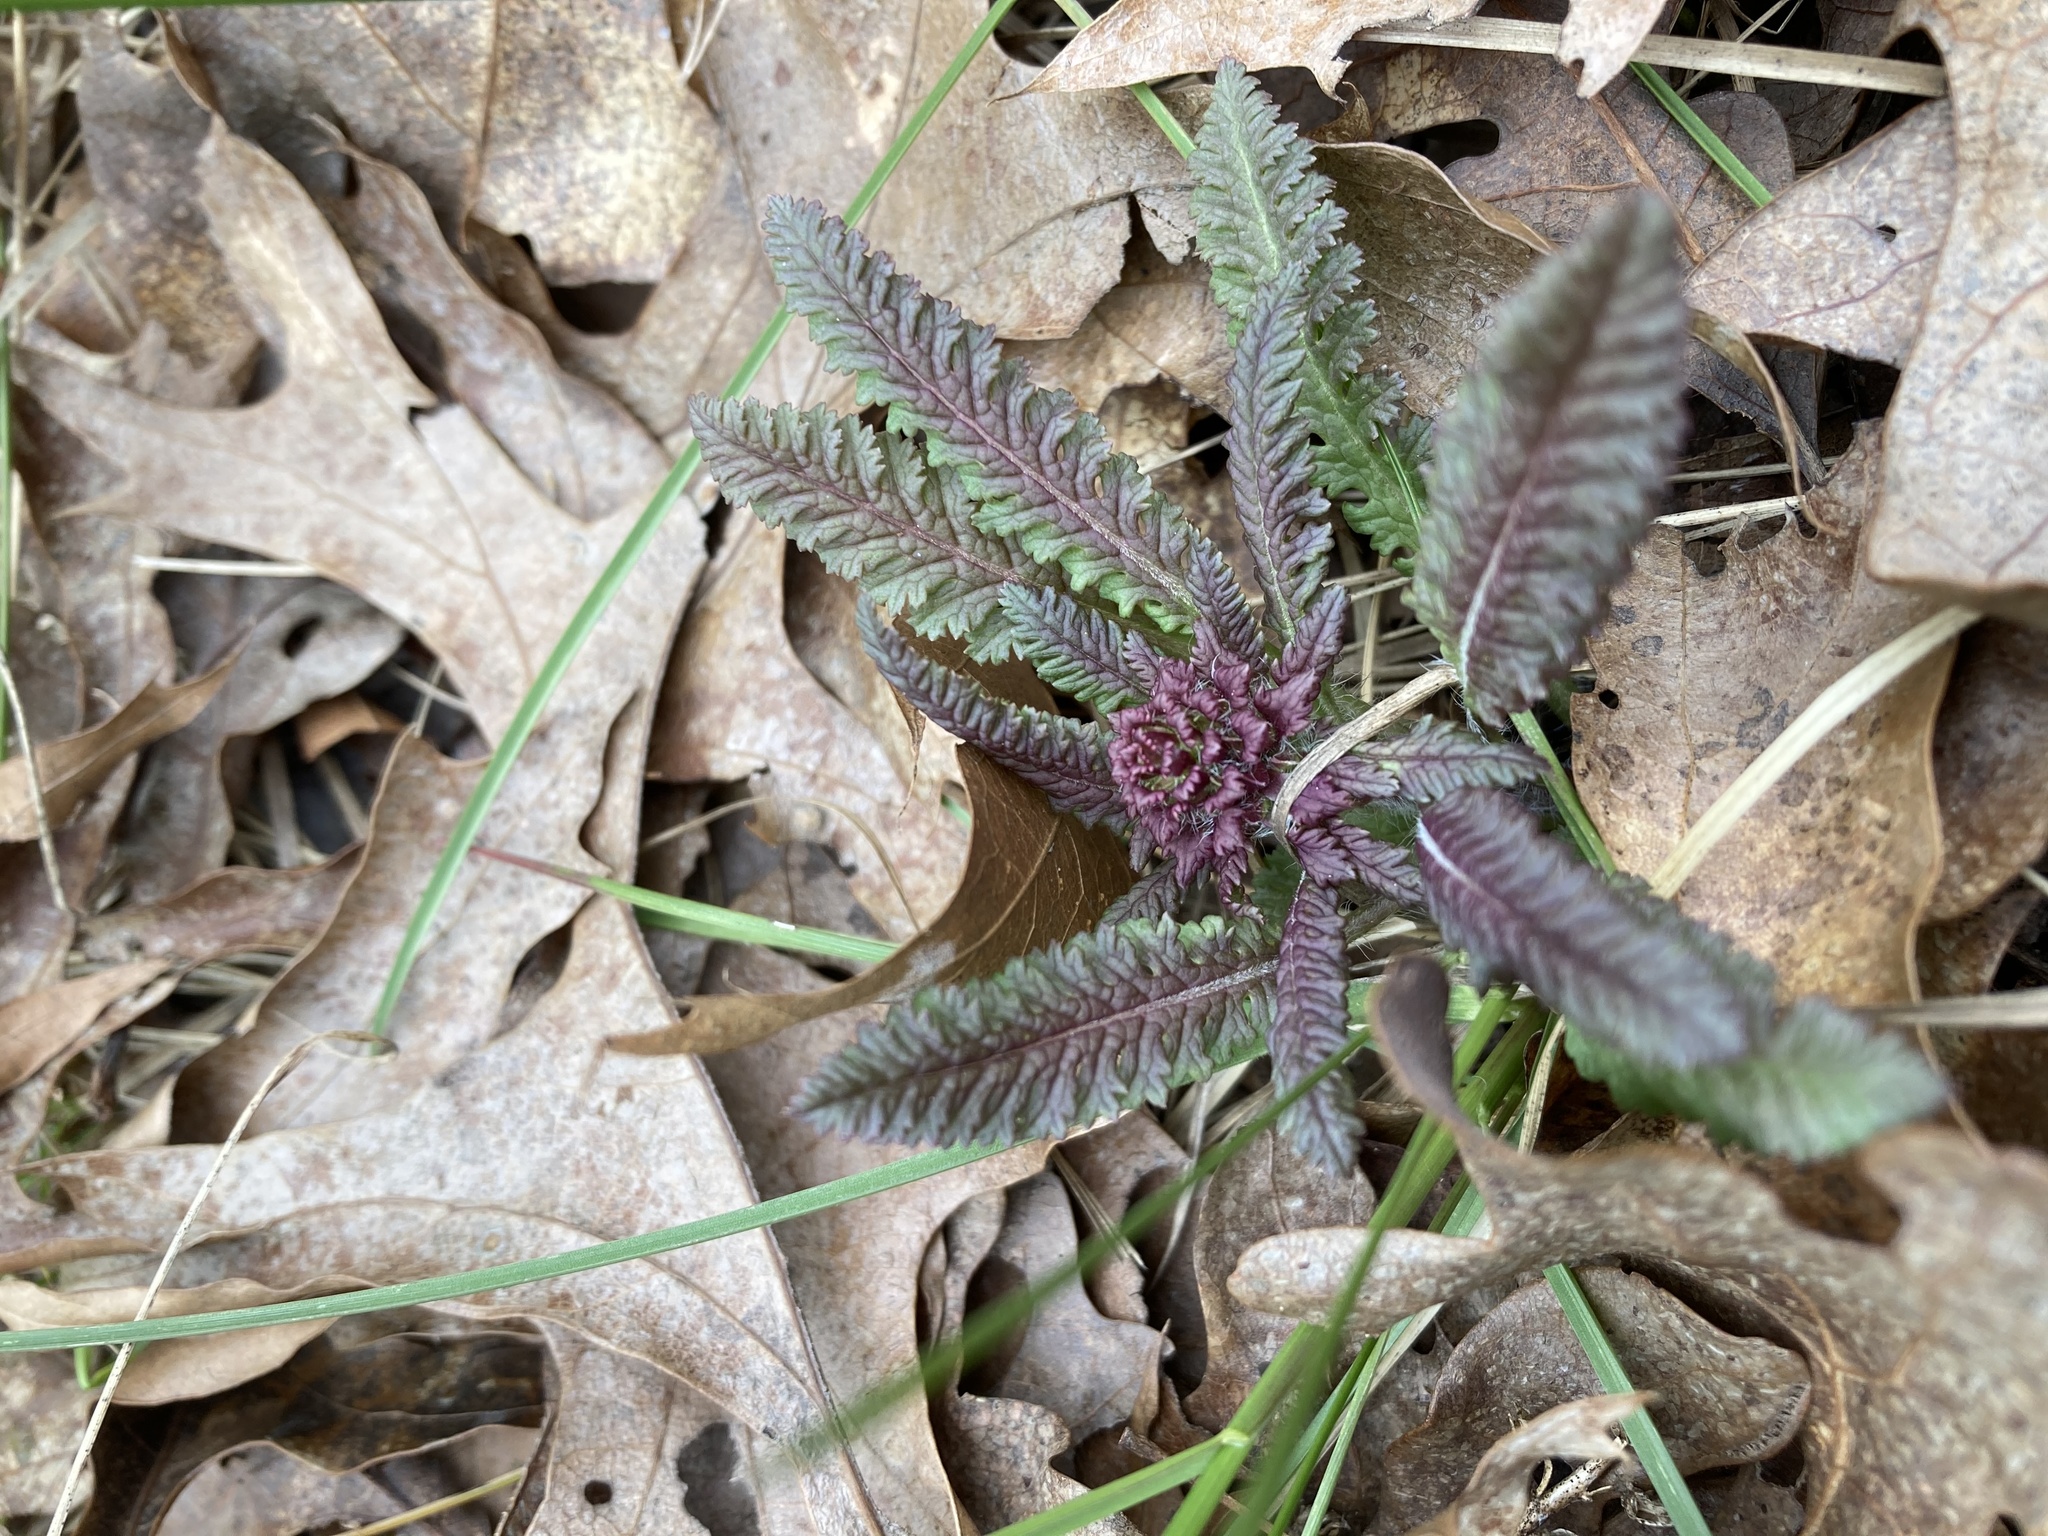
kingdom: Plantae
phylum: Tracheophyta
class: Magnoliopsida
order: Lamiales
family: Orobanchaceae
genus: Pedicularis
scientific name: Pedicularis canadensis
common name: Early lousewort
